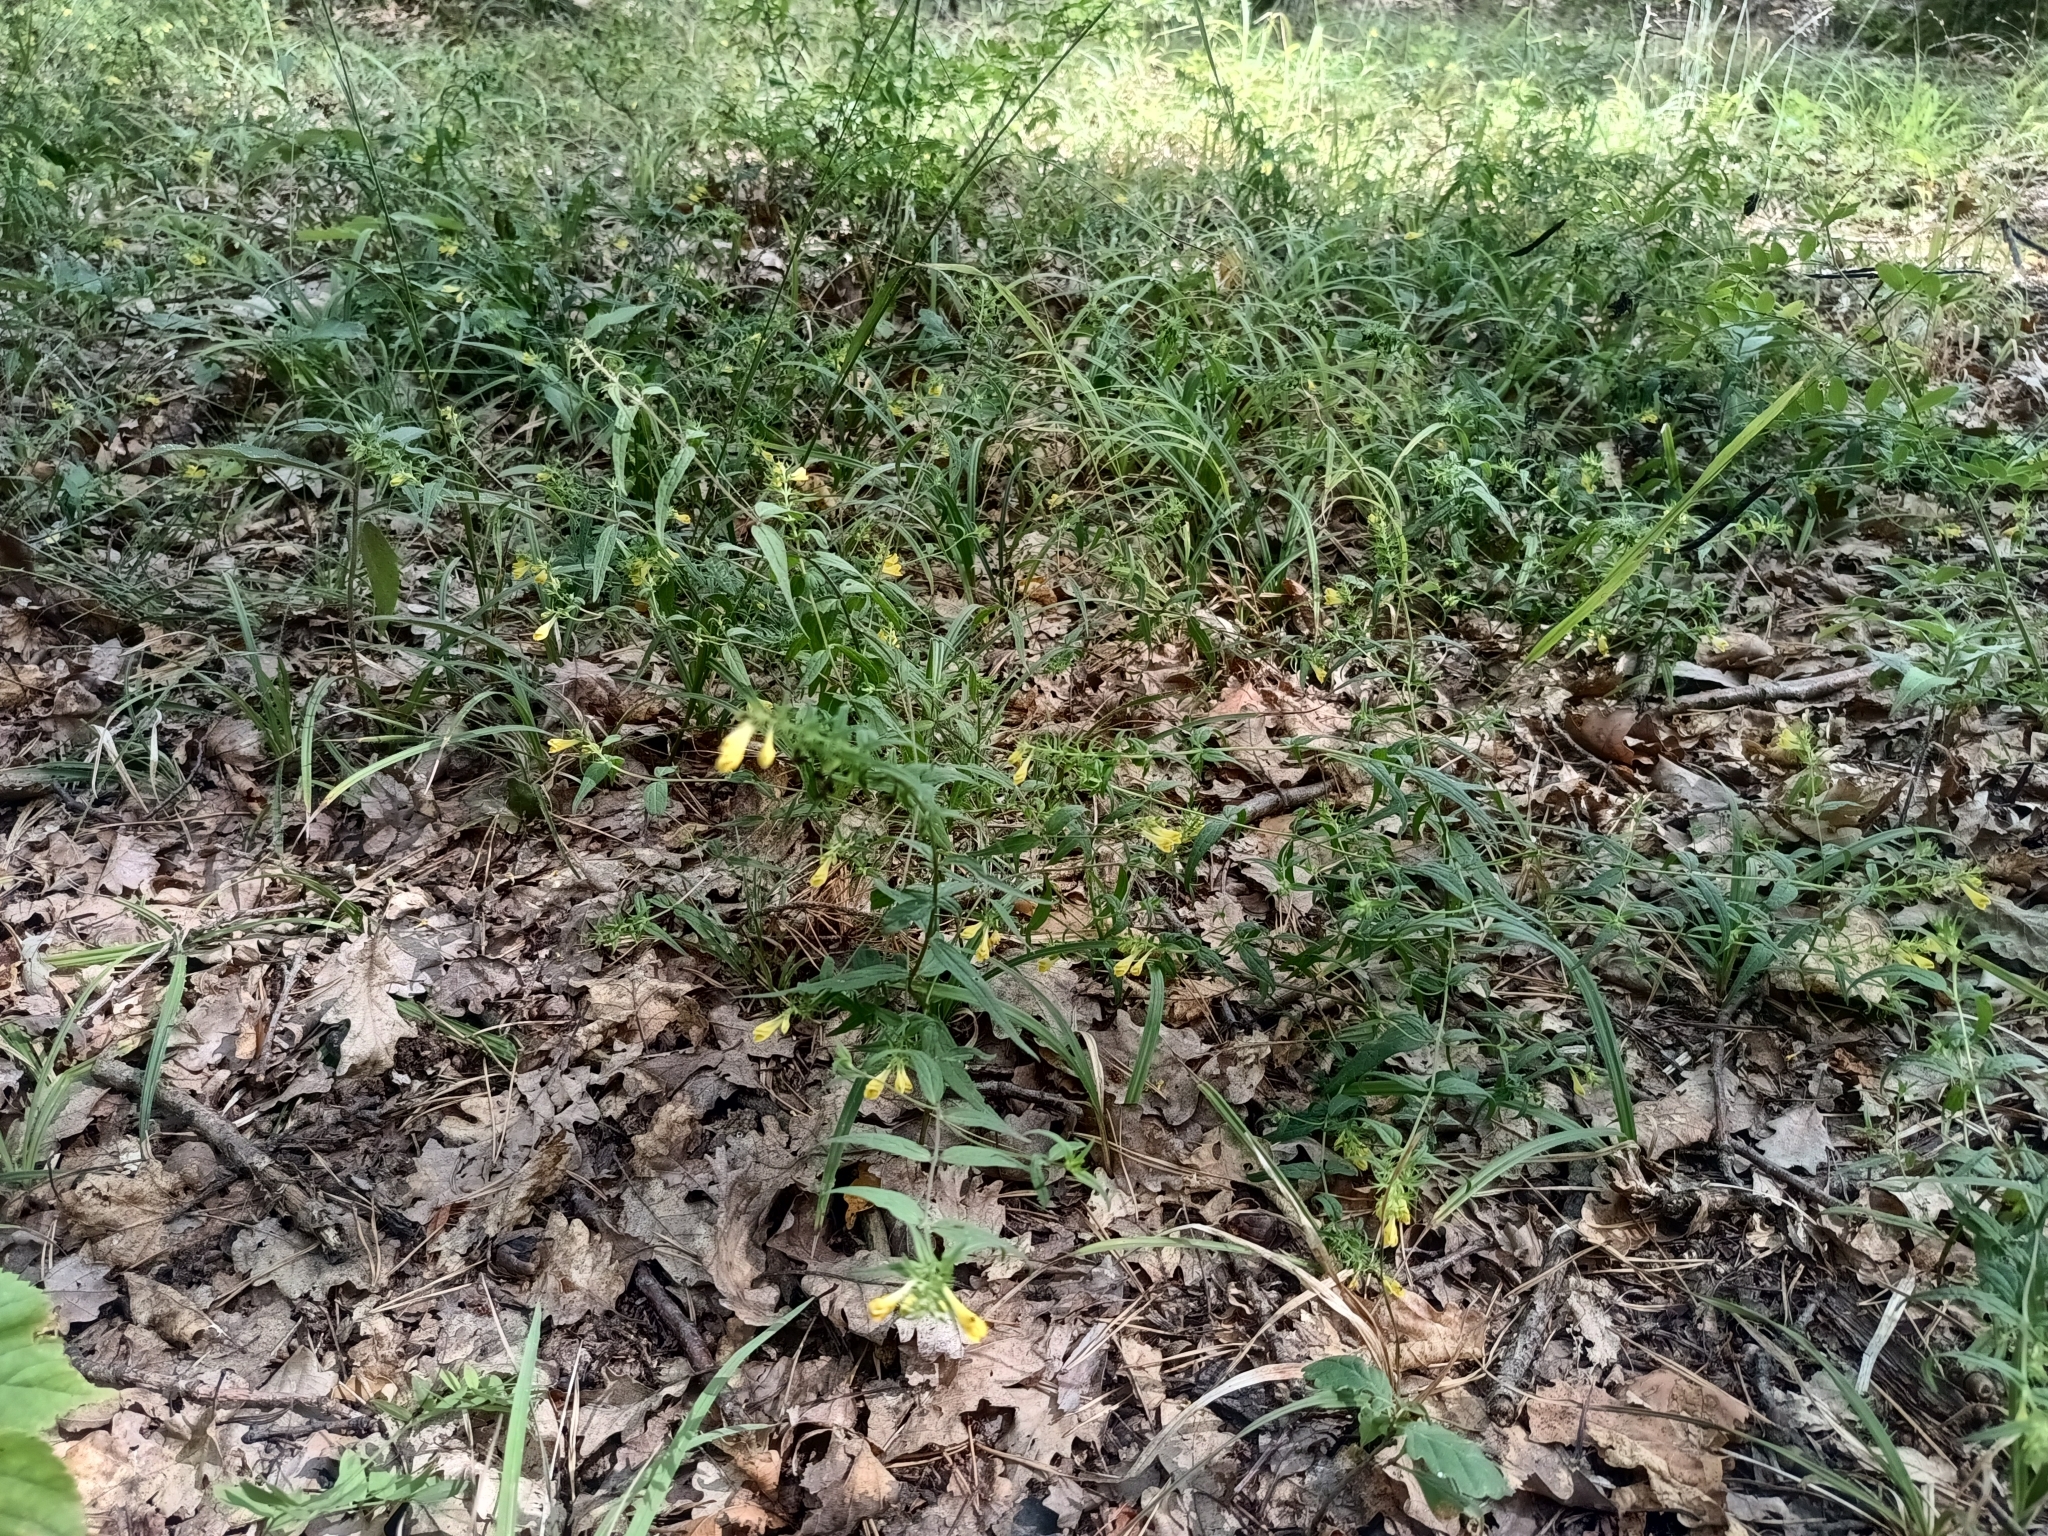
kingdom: Plantae
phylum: Tracheophyta
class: Magnoliopsida
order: Lamiales
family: Orobanchaceae
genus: Melampyrum
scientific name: Melampyrum pratense
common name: Common cow-wheat
